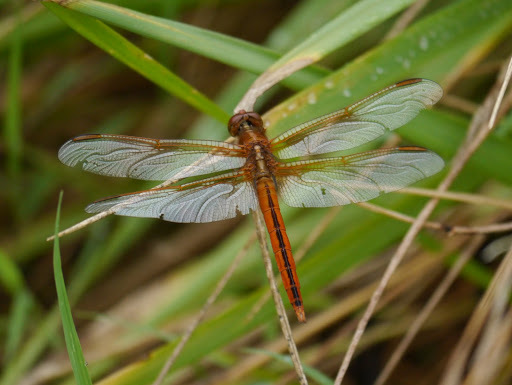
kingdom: Animalia
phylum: Arthropoda
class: Insecta
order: Odonata
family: Libellulidae
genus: Libellula
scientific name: Libellula needhami
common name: Needham's skimmer
